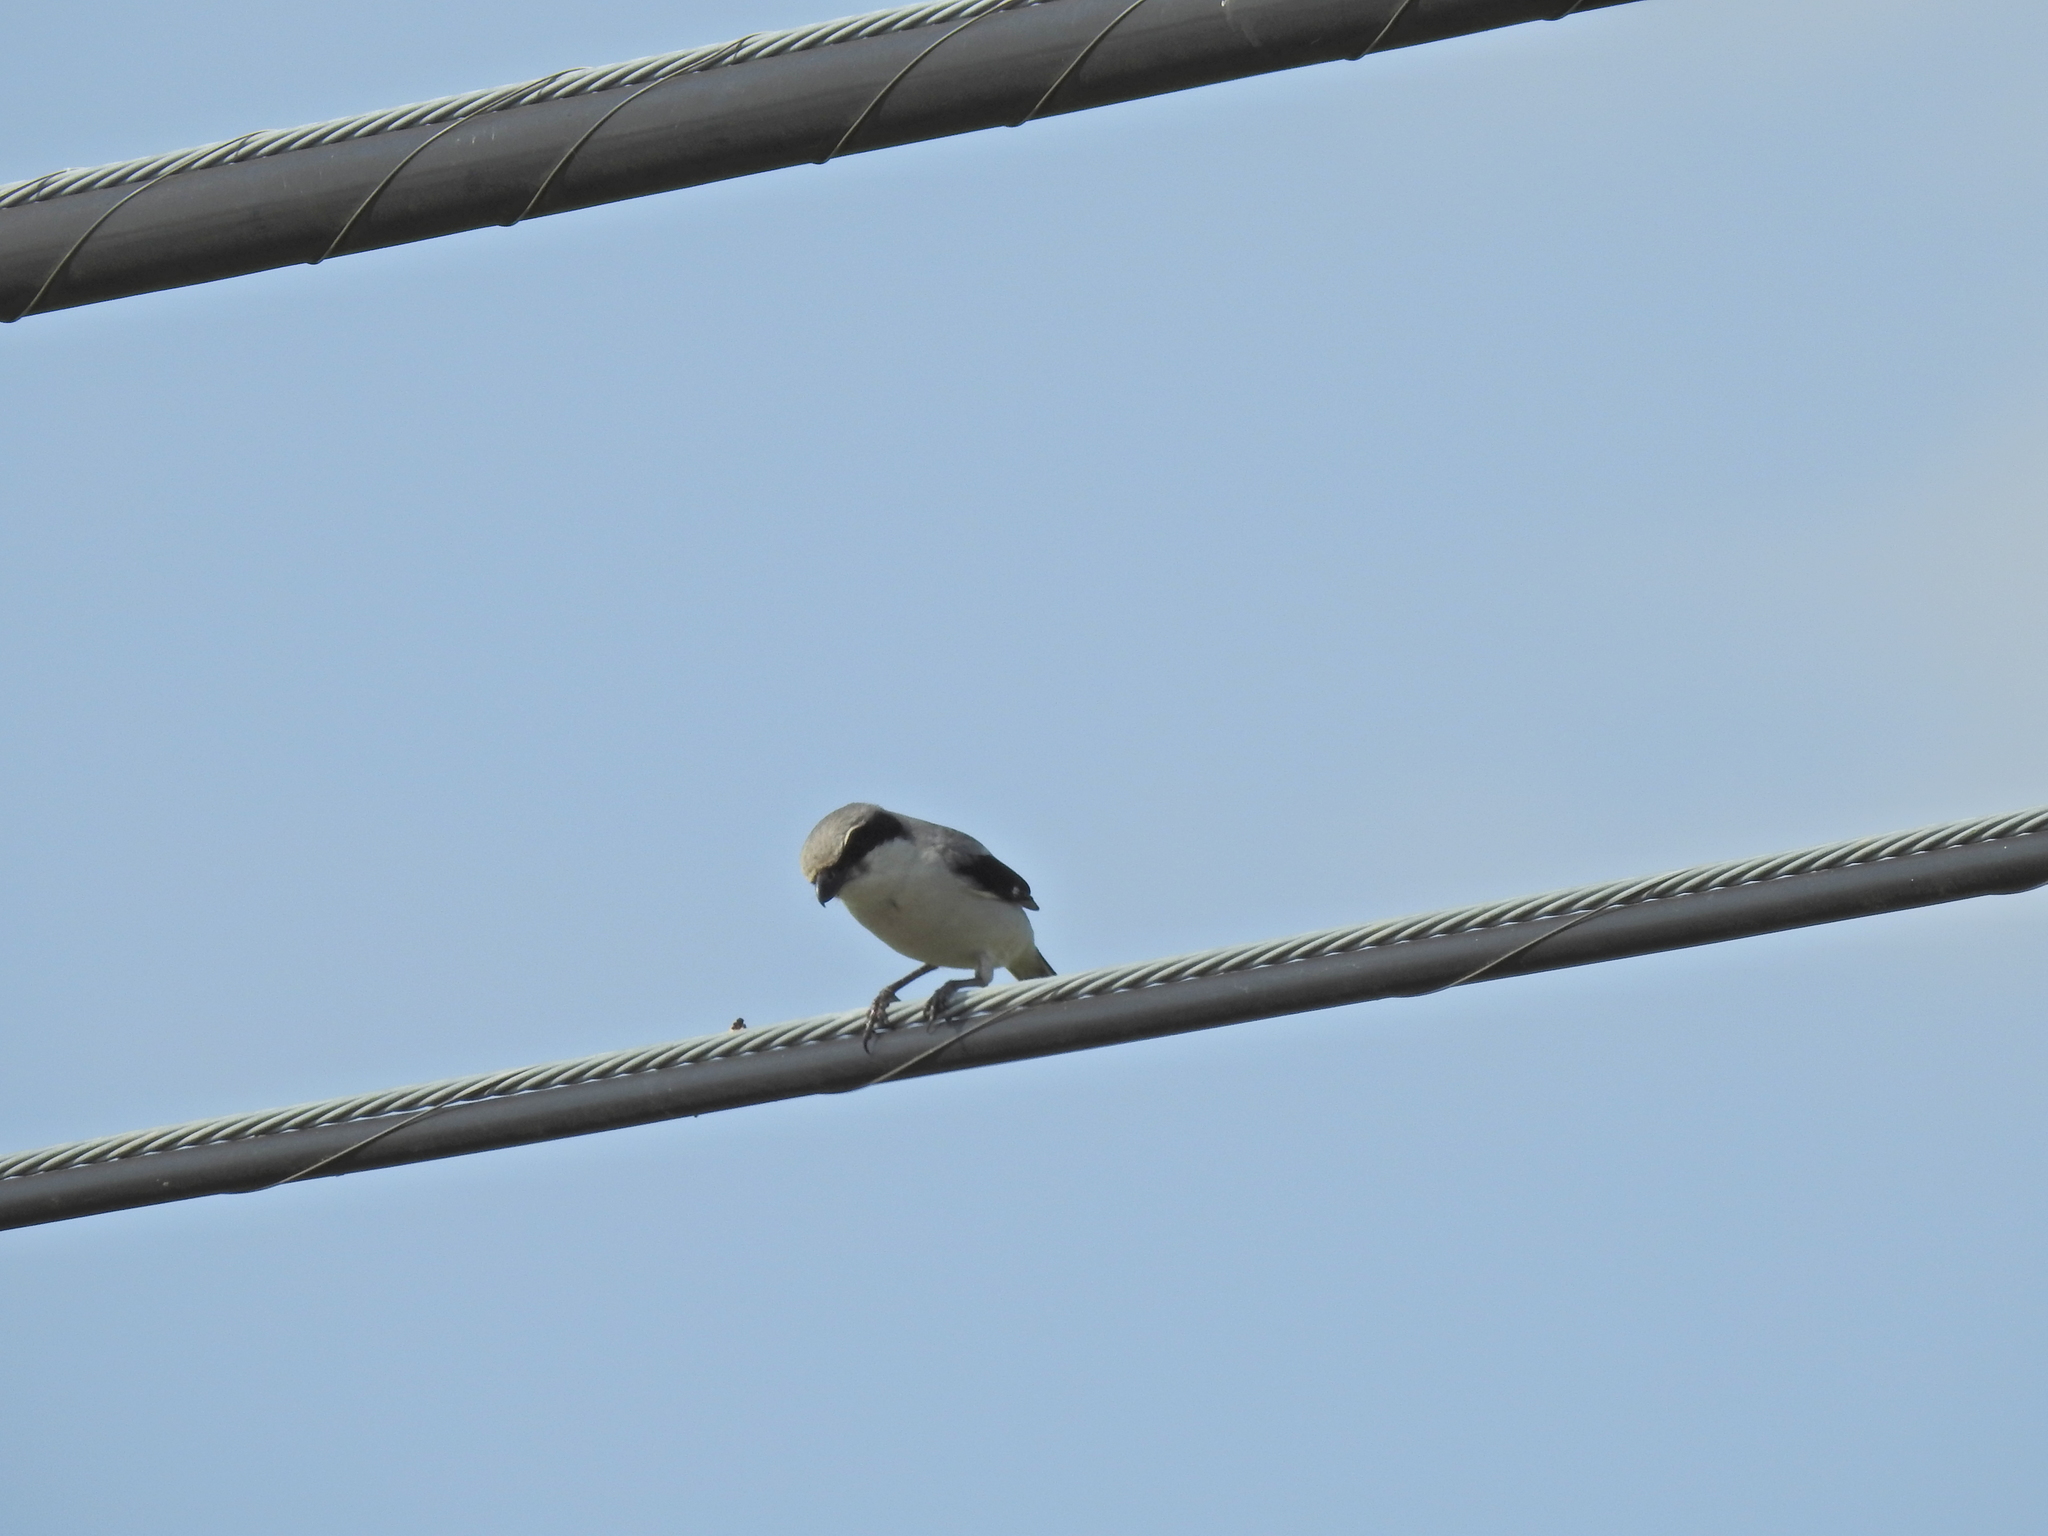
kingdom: Animalia
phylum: Chordata
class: Aves
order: Passeriformes
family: Laniidae
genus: Lanius
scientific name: Lanius ludovicianus
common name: Loggerhead shrike
